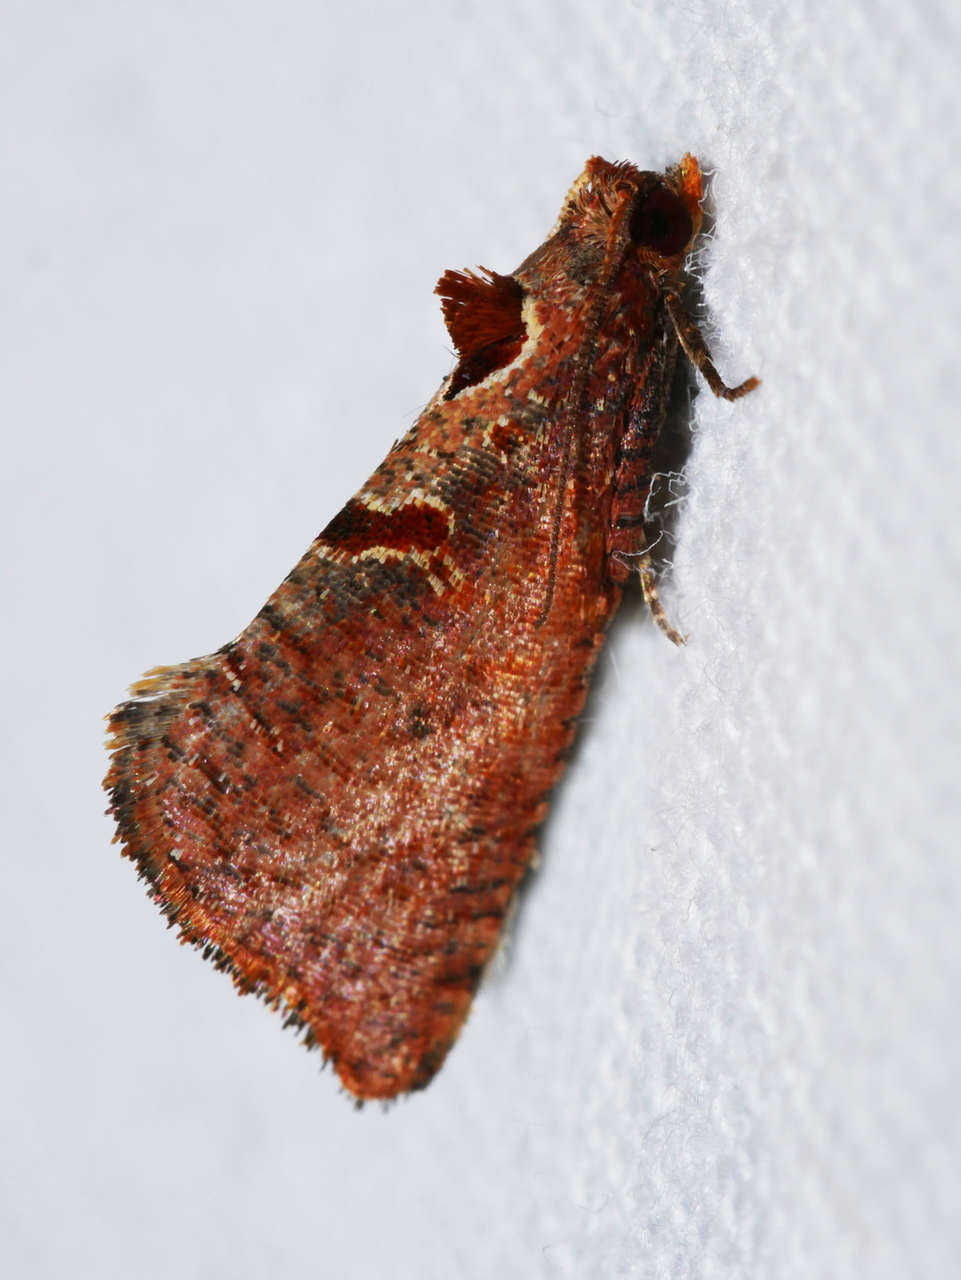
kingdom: Animalia
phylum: Arthropoda
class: Insecta
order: Lepidoptera
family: Tortricidae
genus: Glyphidoptera
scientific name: Glyphidoptera insignana
